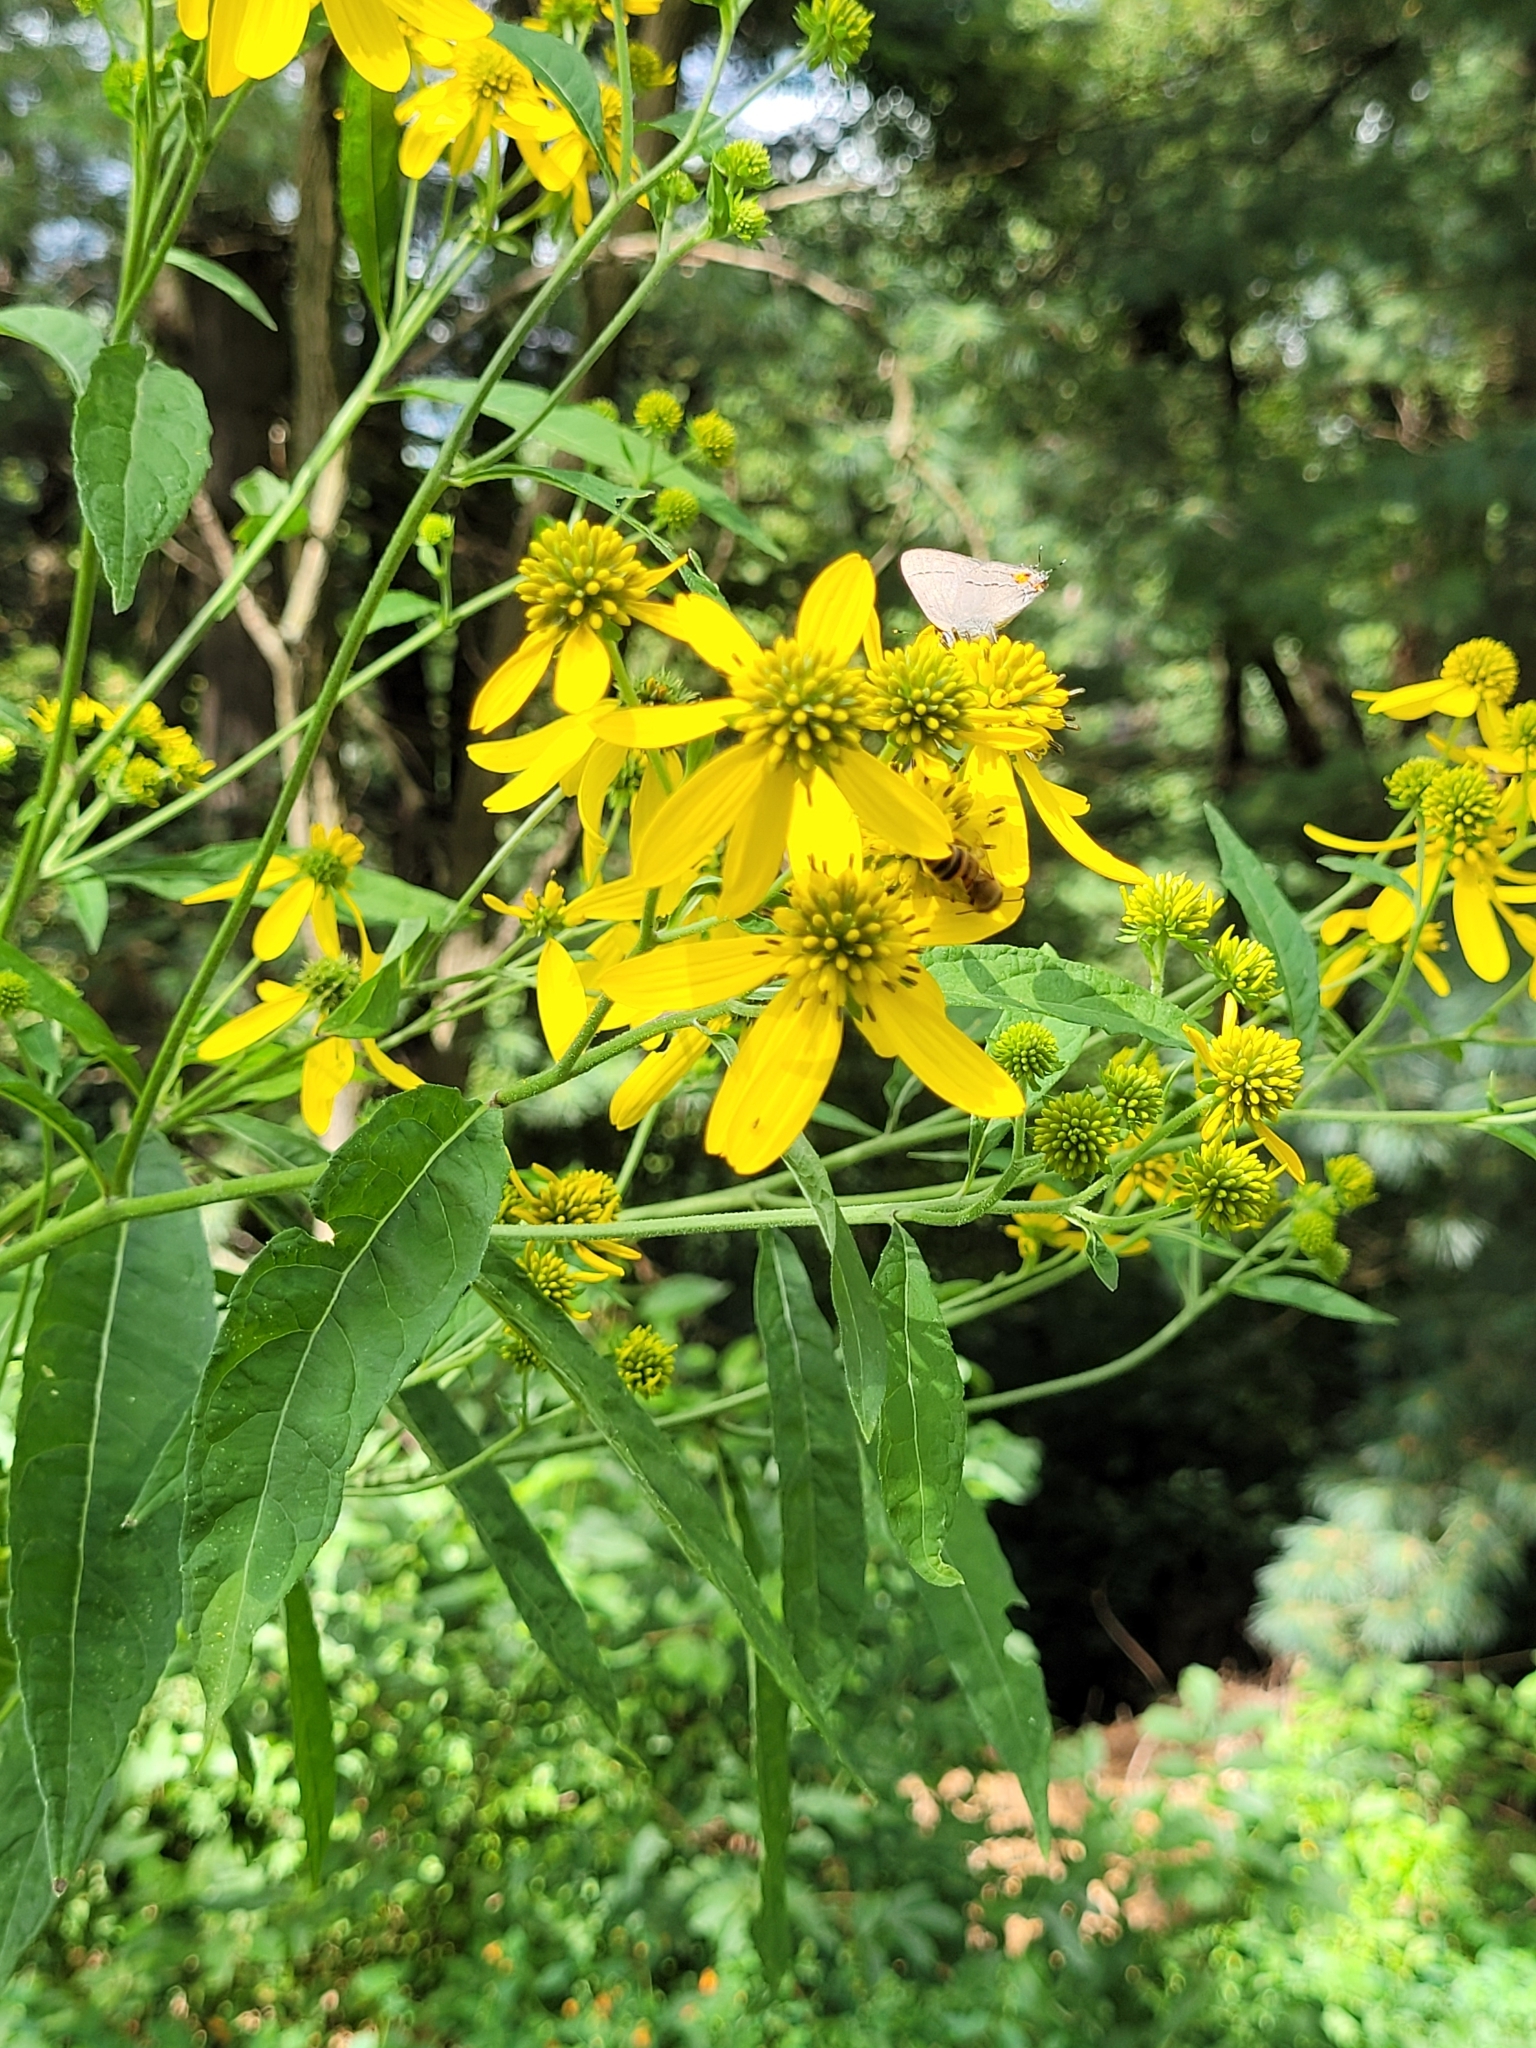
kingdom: Plantae
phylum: Tracheophyta
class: Magnoliopsida
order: Asterales
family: Asteraceae
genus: Verbesina
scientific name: Verbesina alternifolia
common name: Wingstem
